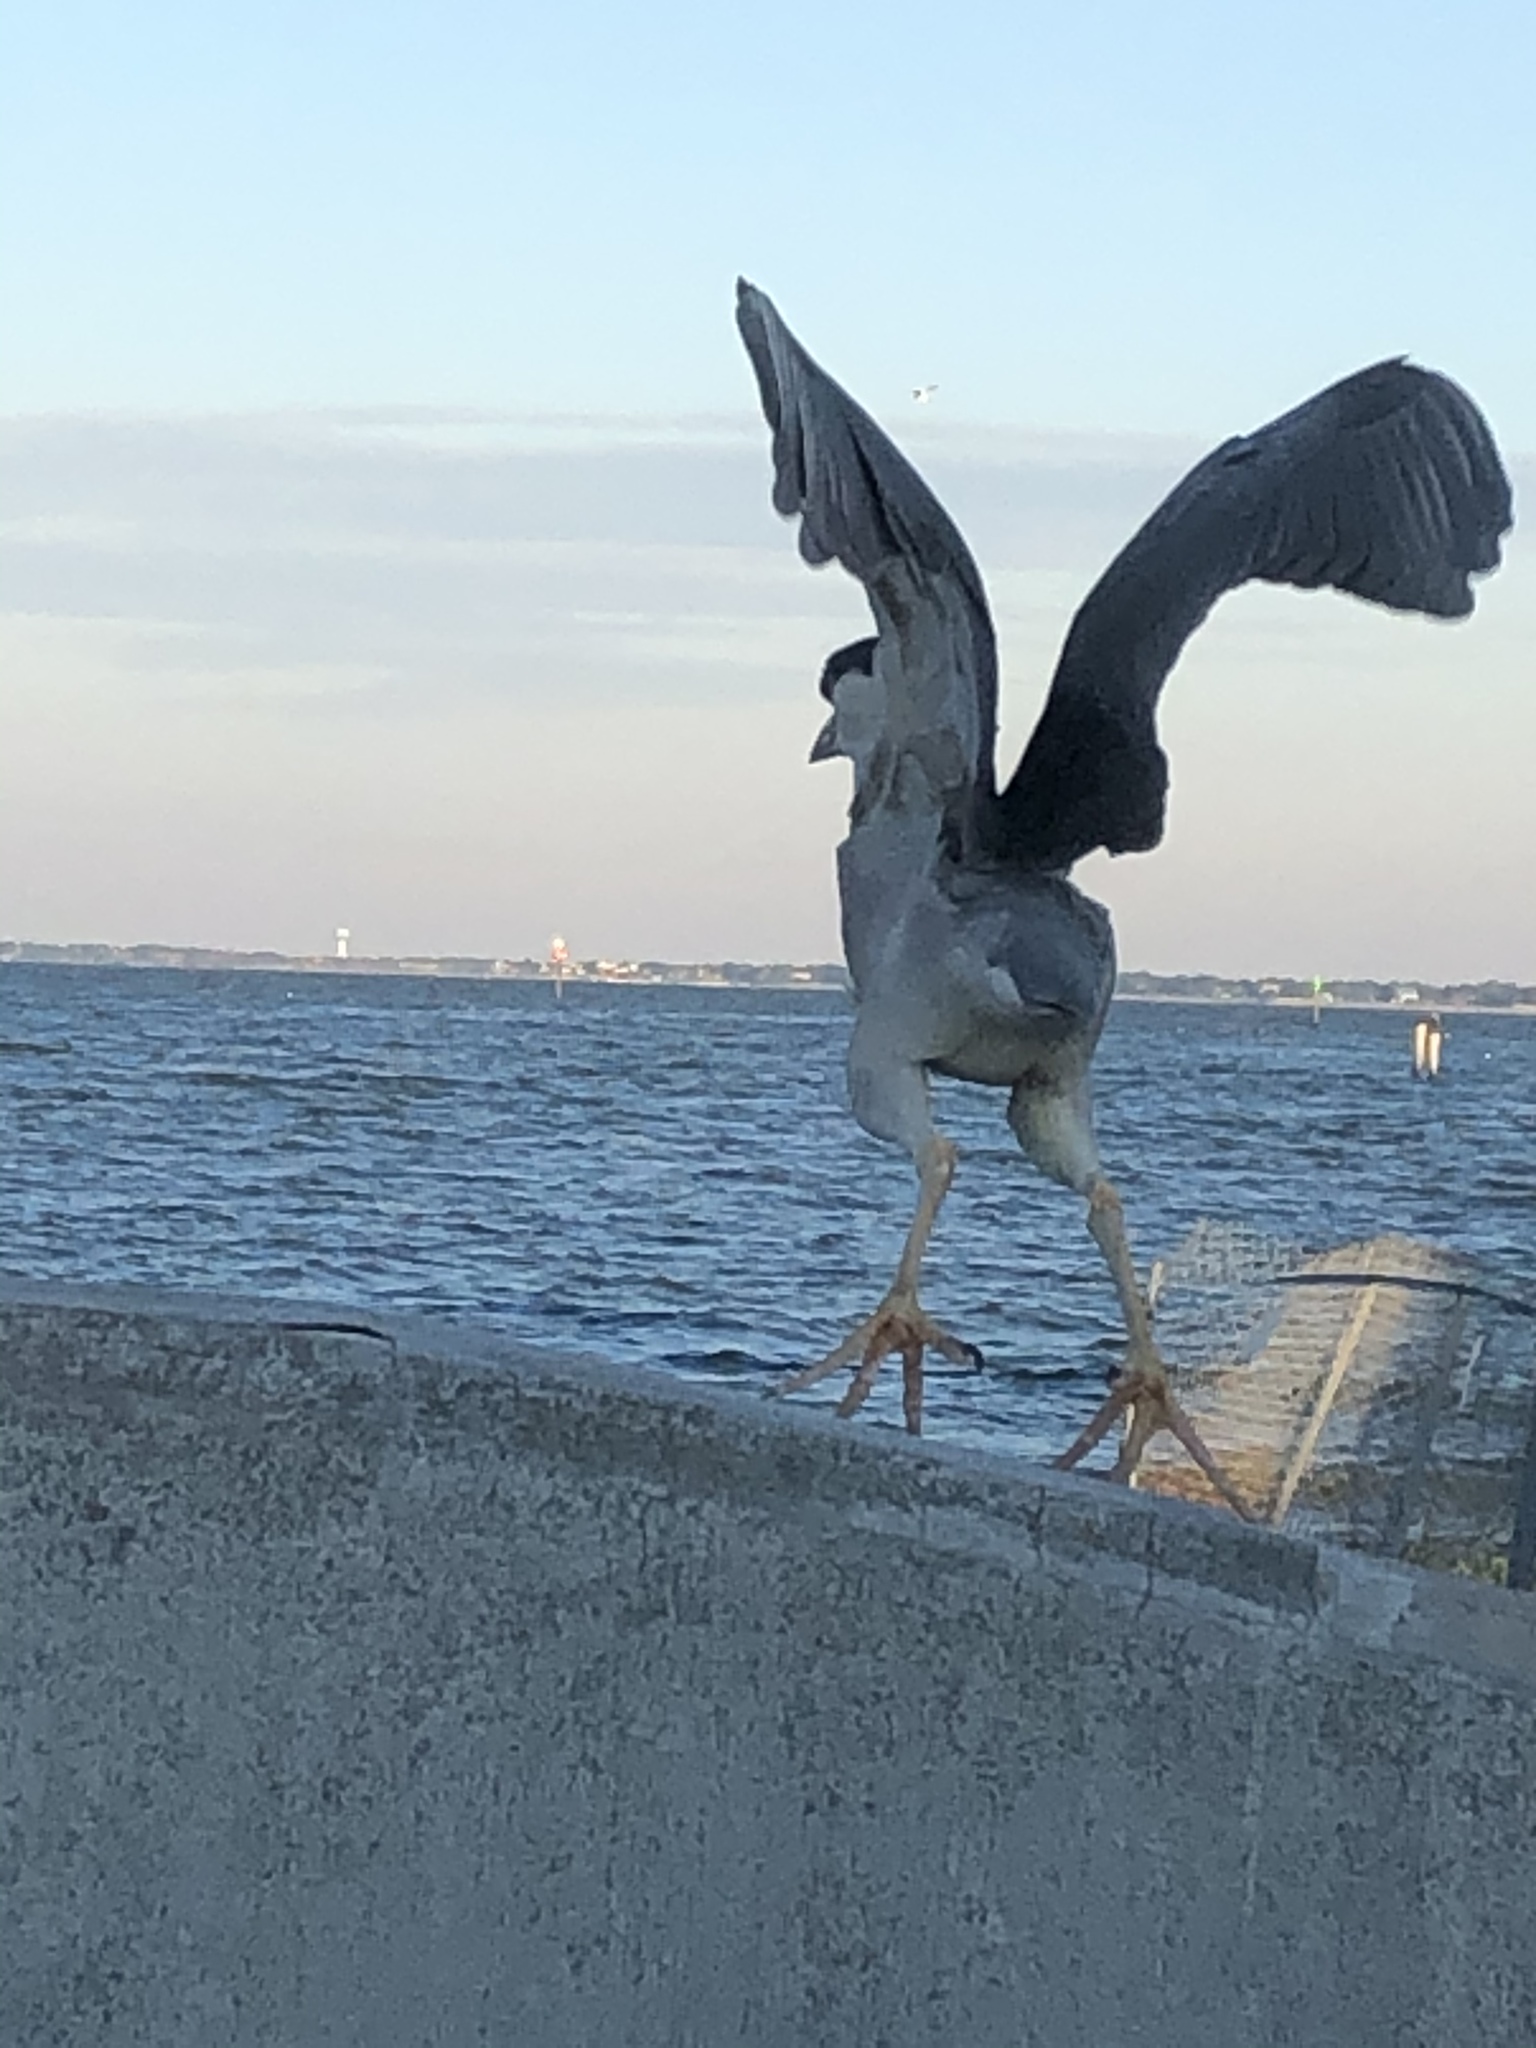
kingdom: Animalia
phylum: Chordata
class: Aves
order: Pelecaniformes
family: Ardeidae
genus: Nycticorax
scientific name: Nycticorax nycticorax
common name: Black-crowned night heron
